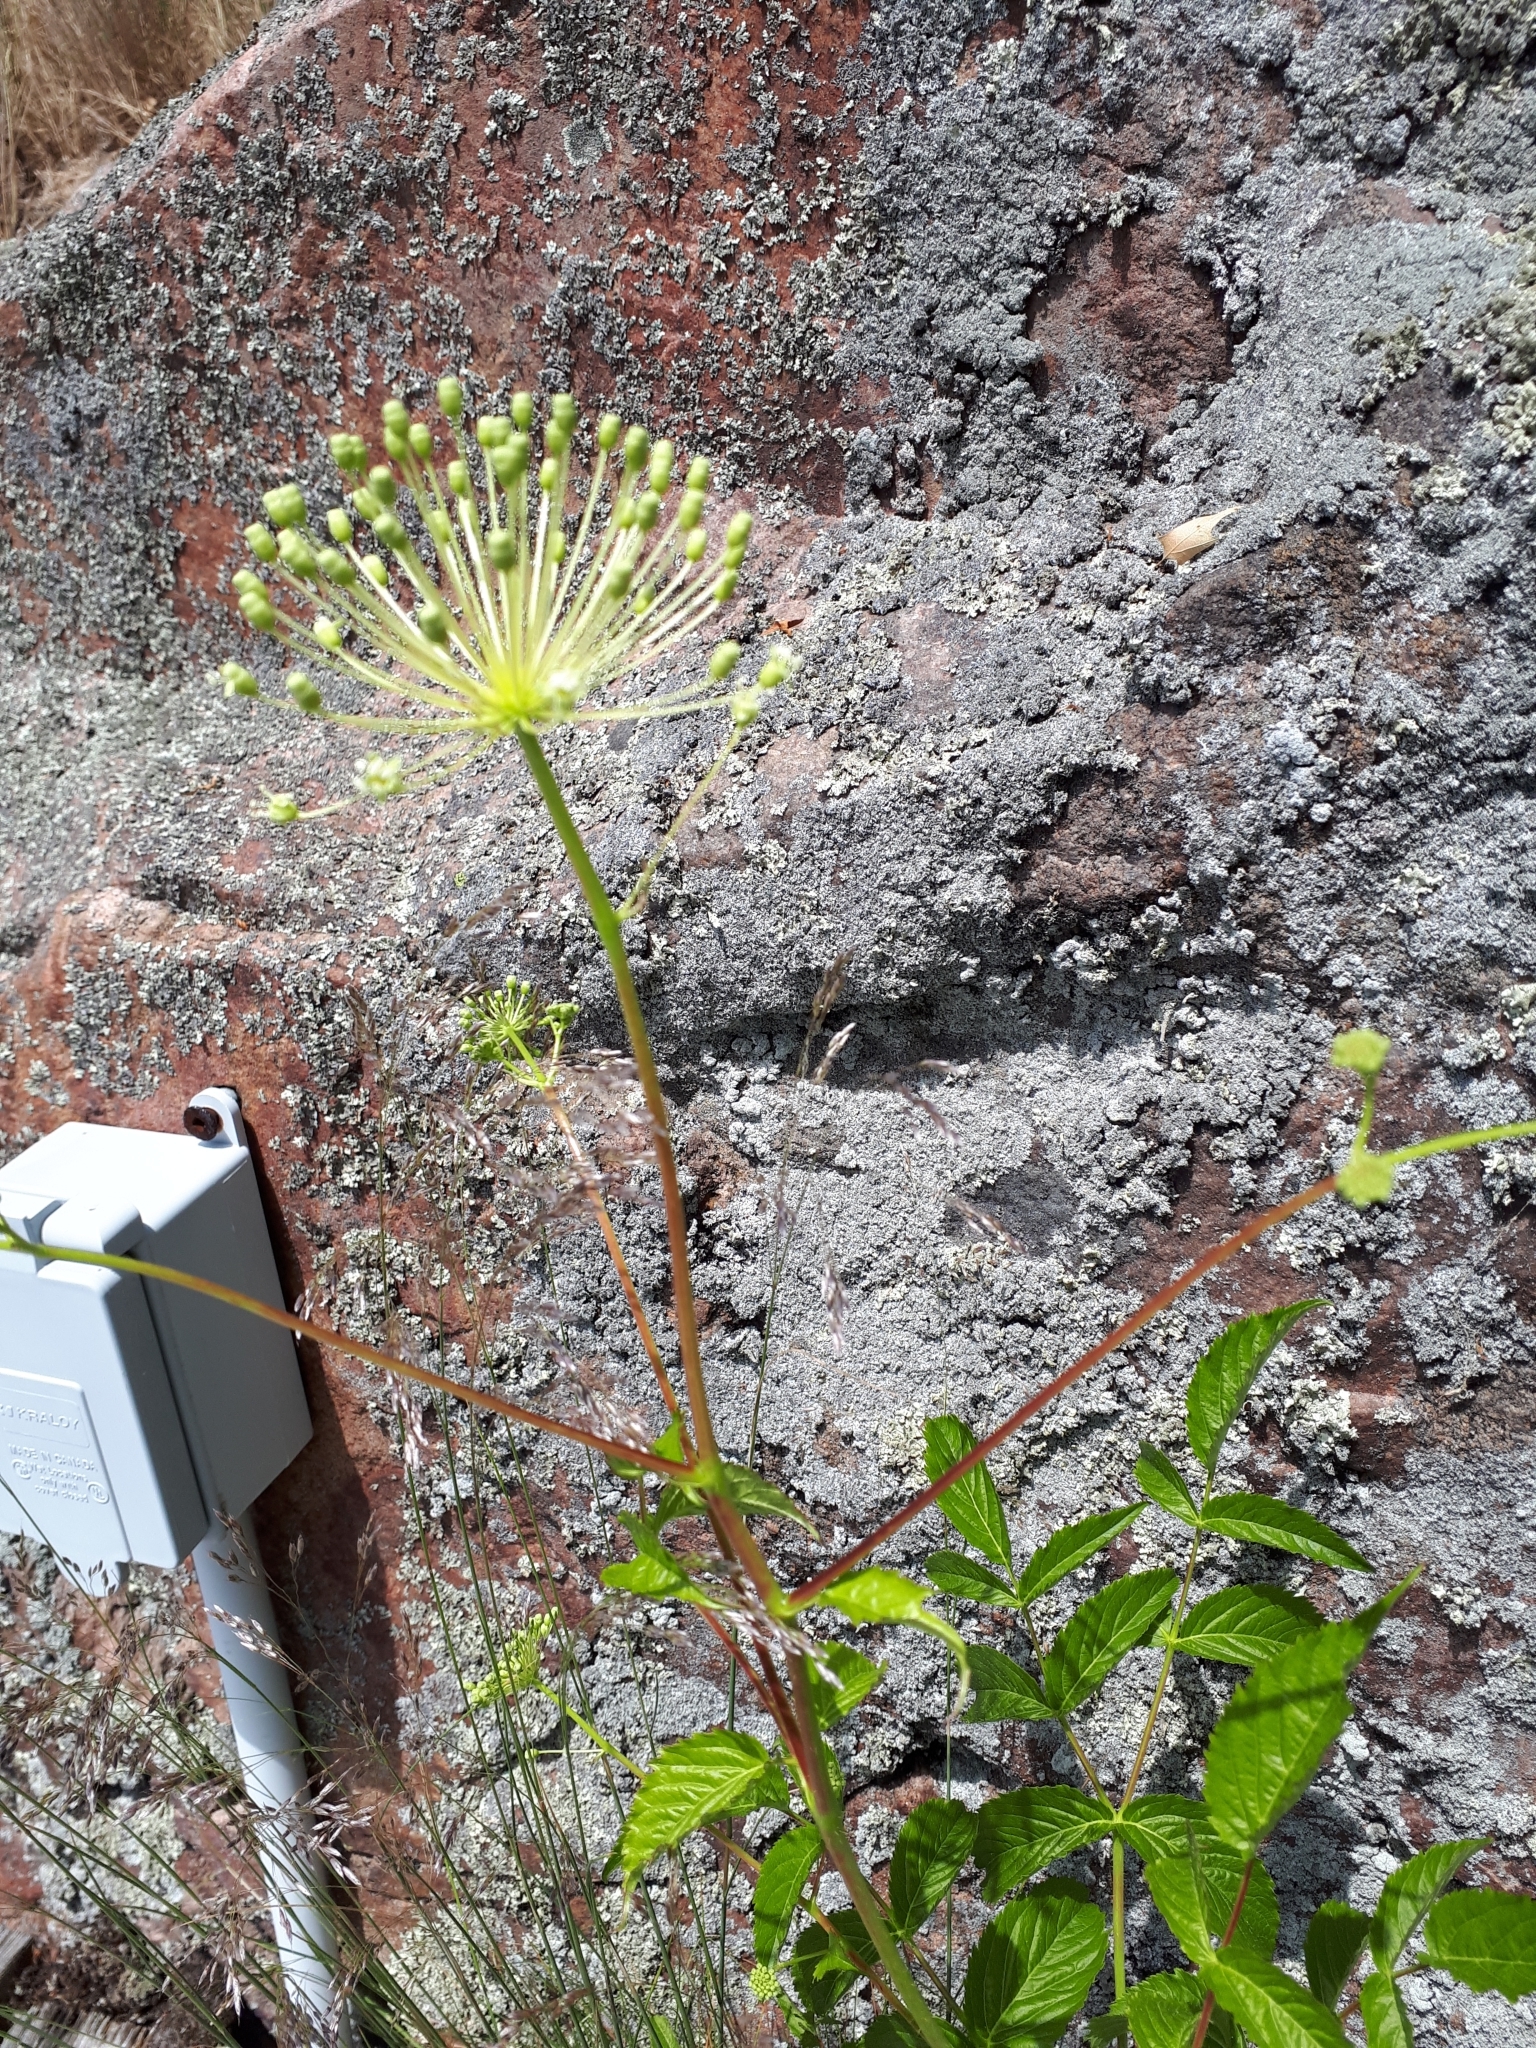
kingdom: Plantae
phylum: Tracheophyta
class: Magnoliopsida
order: Apiales
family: Araliaceae
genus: Aralia
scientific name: Aralia hispida
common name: Bristly sarsaparilla
